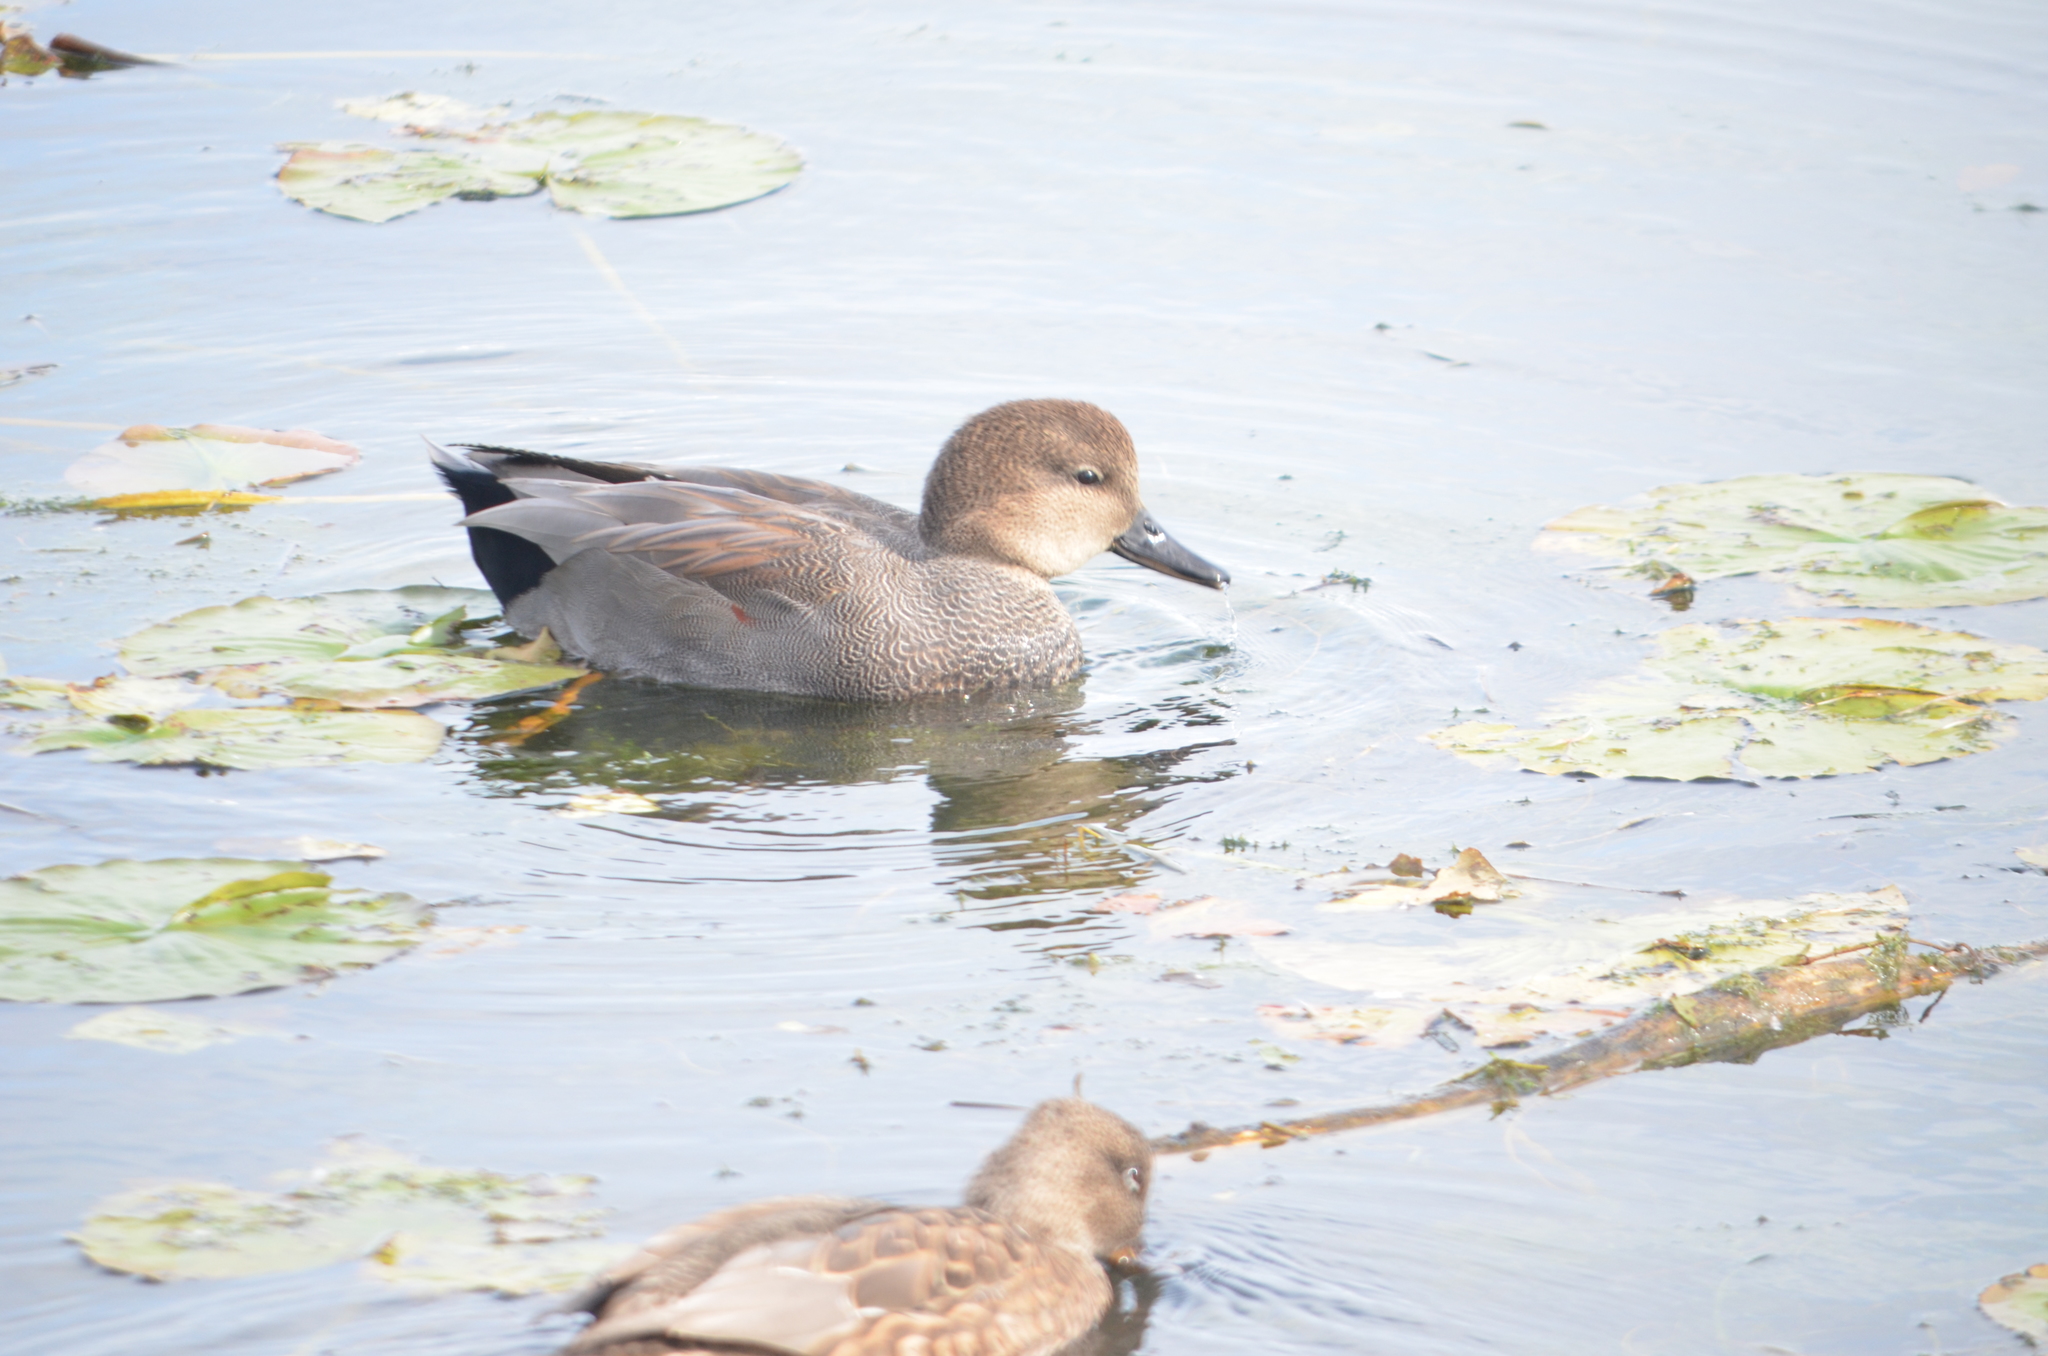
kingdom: Animalia
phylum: Chordata
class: Aves
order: Anseriformes
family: Anatidae
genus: Mareca
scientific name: Mareca strepera
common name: Gadwall
